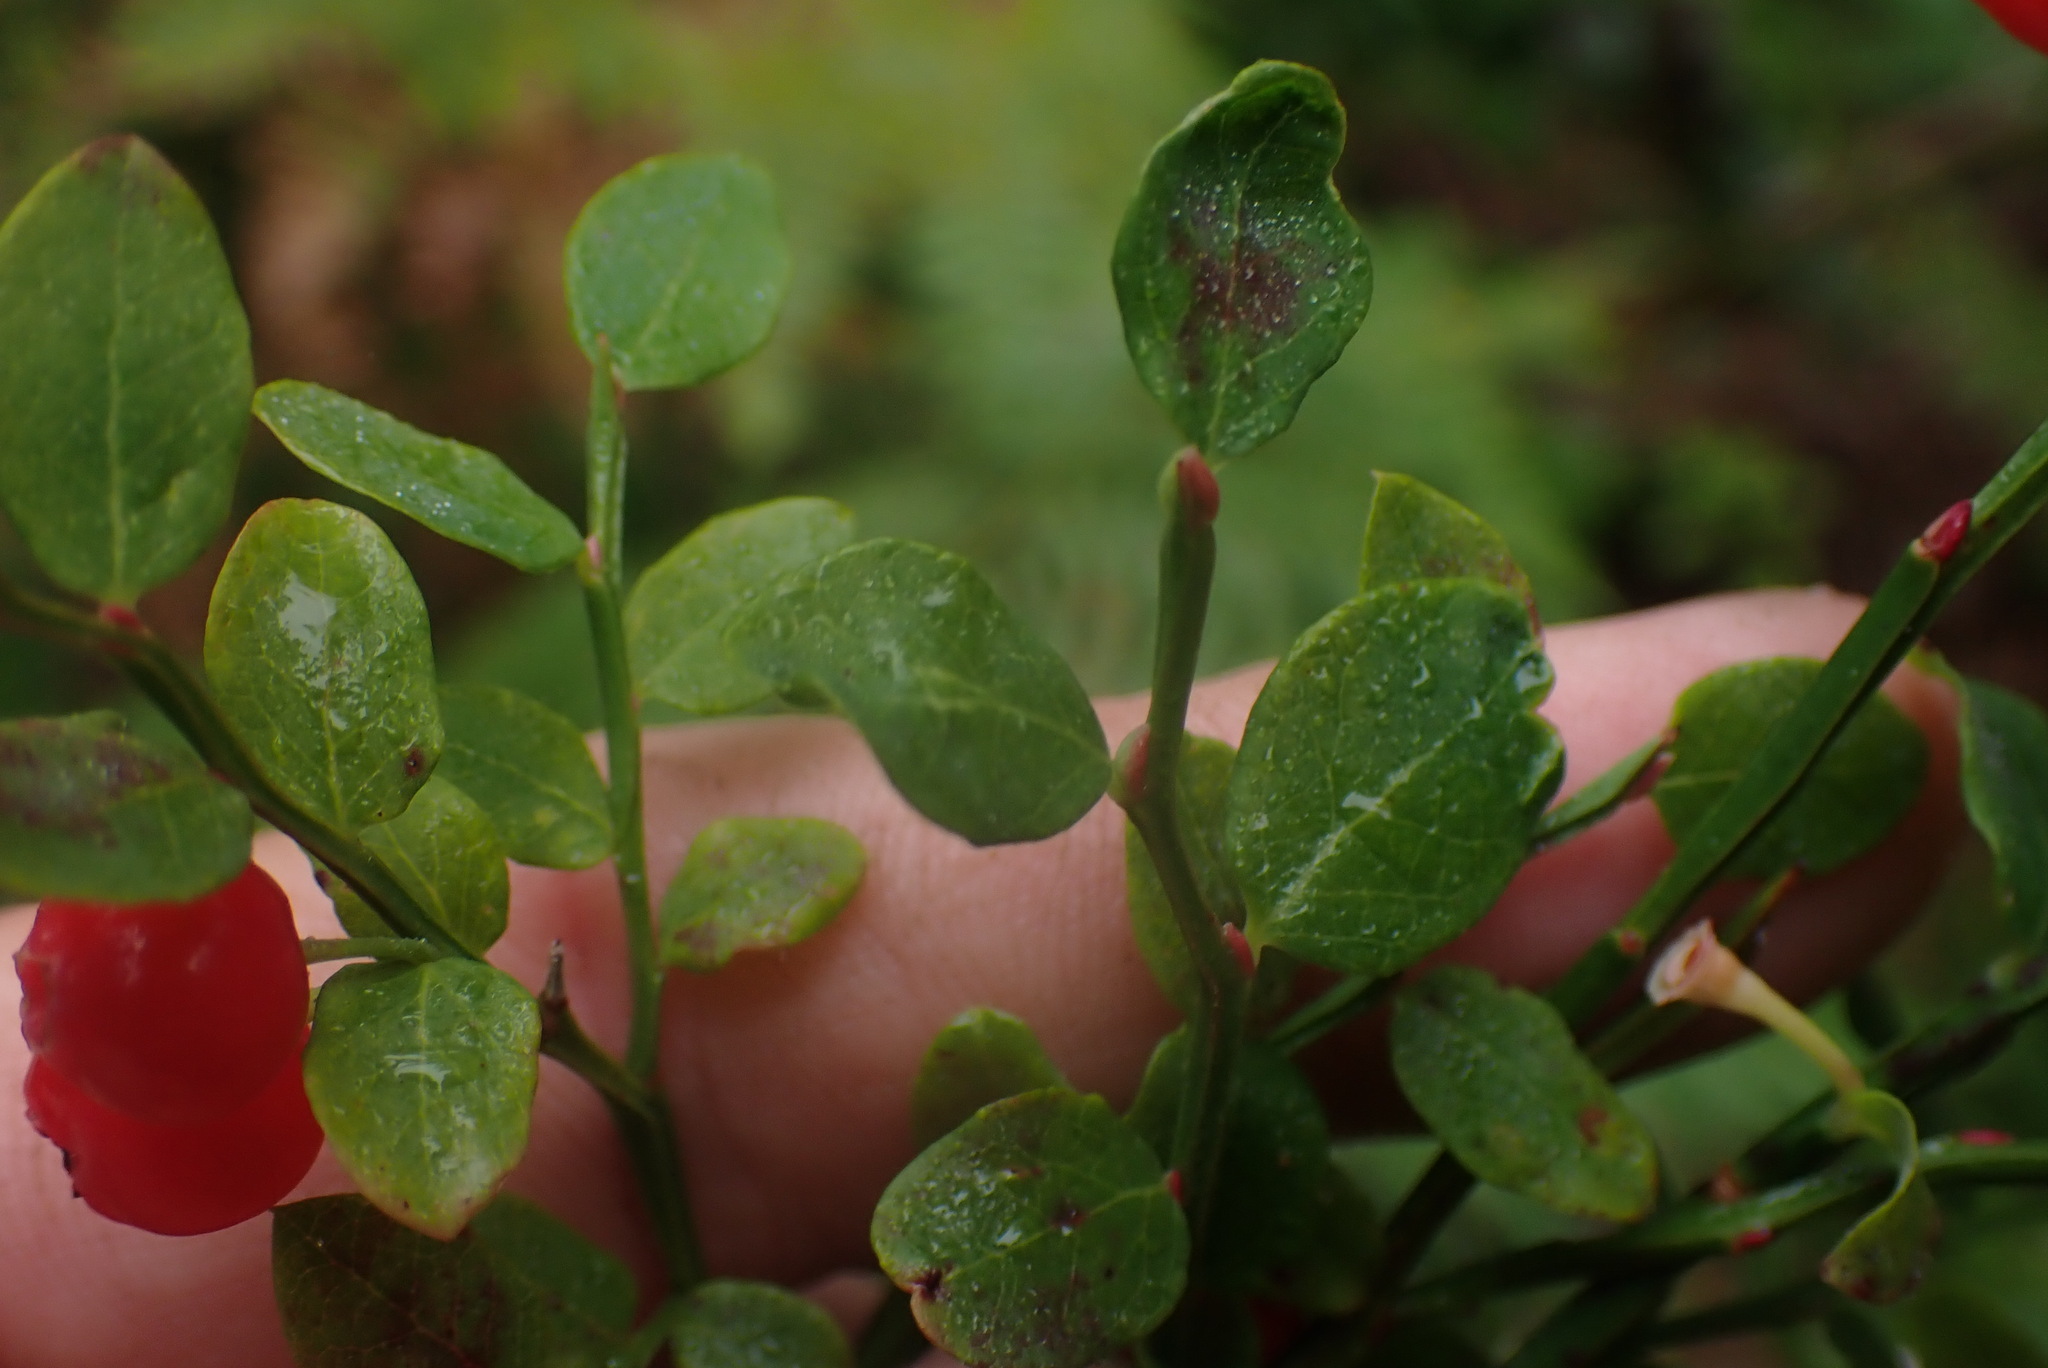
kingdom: Plantae
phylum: Tracheophyta
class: Magnoliopsida
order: Ericales
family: Ericaceae
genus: Vaccinium
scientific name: Vaccinium parvifolium
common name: Red-huckleberry
